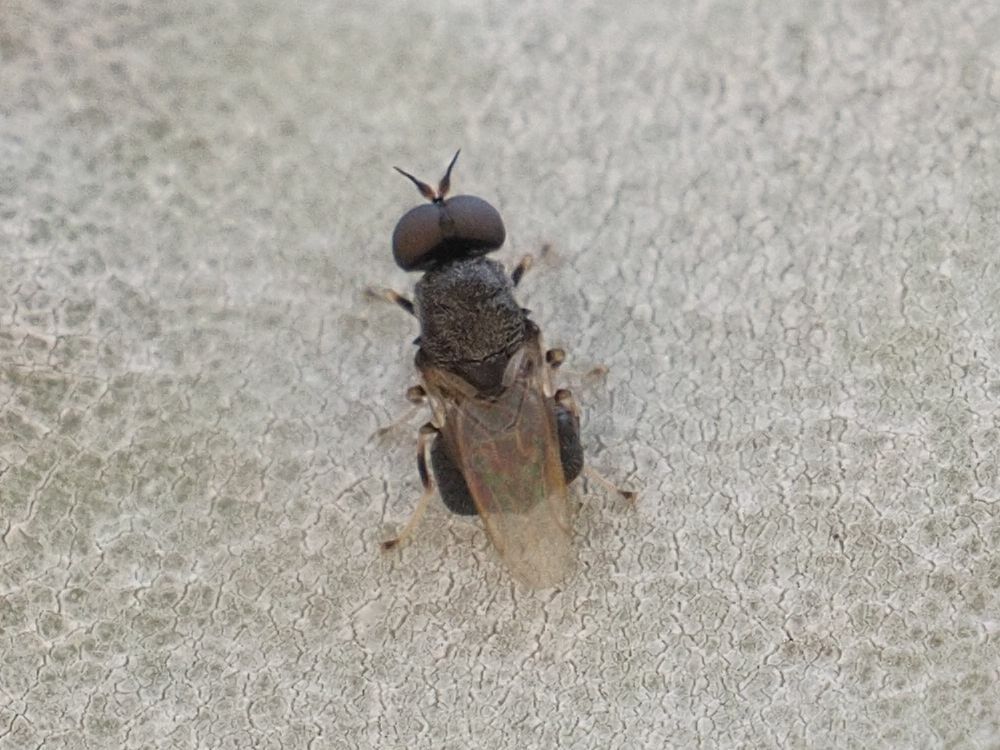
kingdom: Animalia
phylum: Arthropoda
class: Insecta
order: Diptera
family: Stratiomyidae
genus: Alliophleps
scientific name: Alliophleps elliptica
